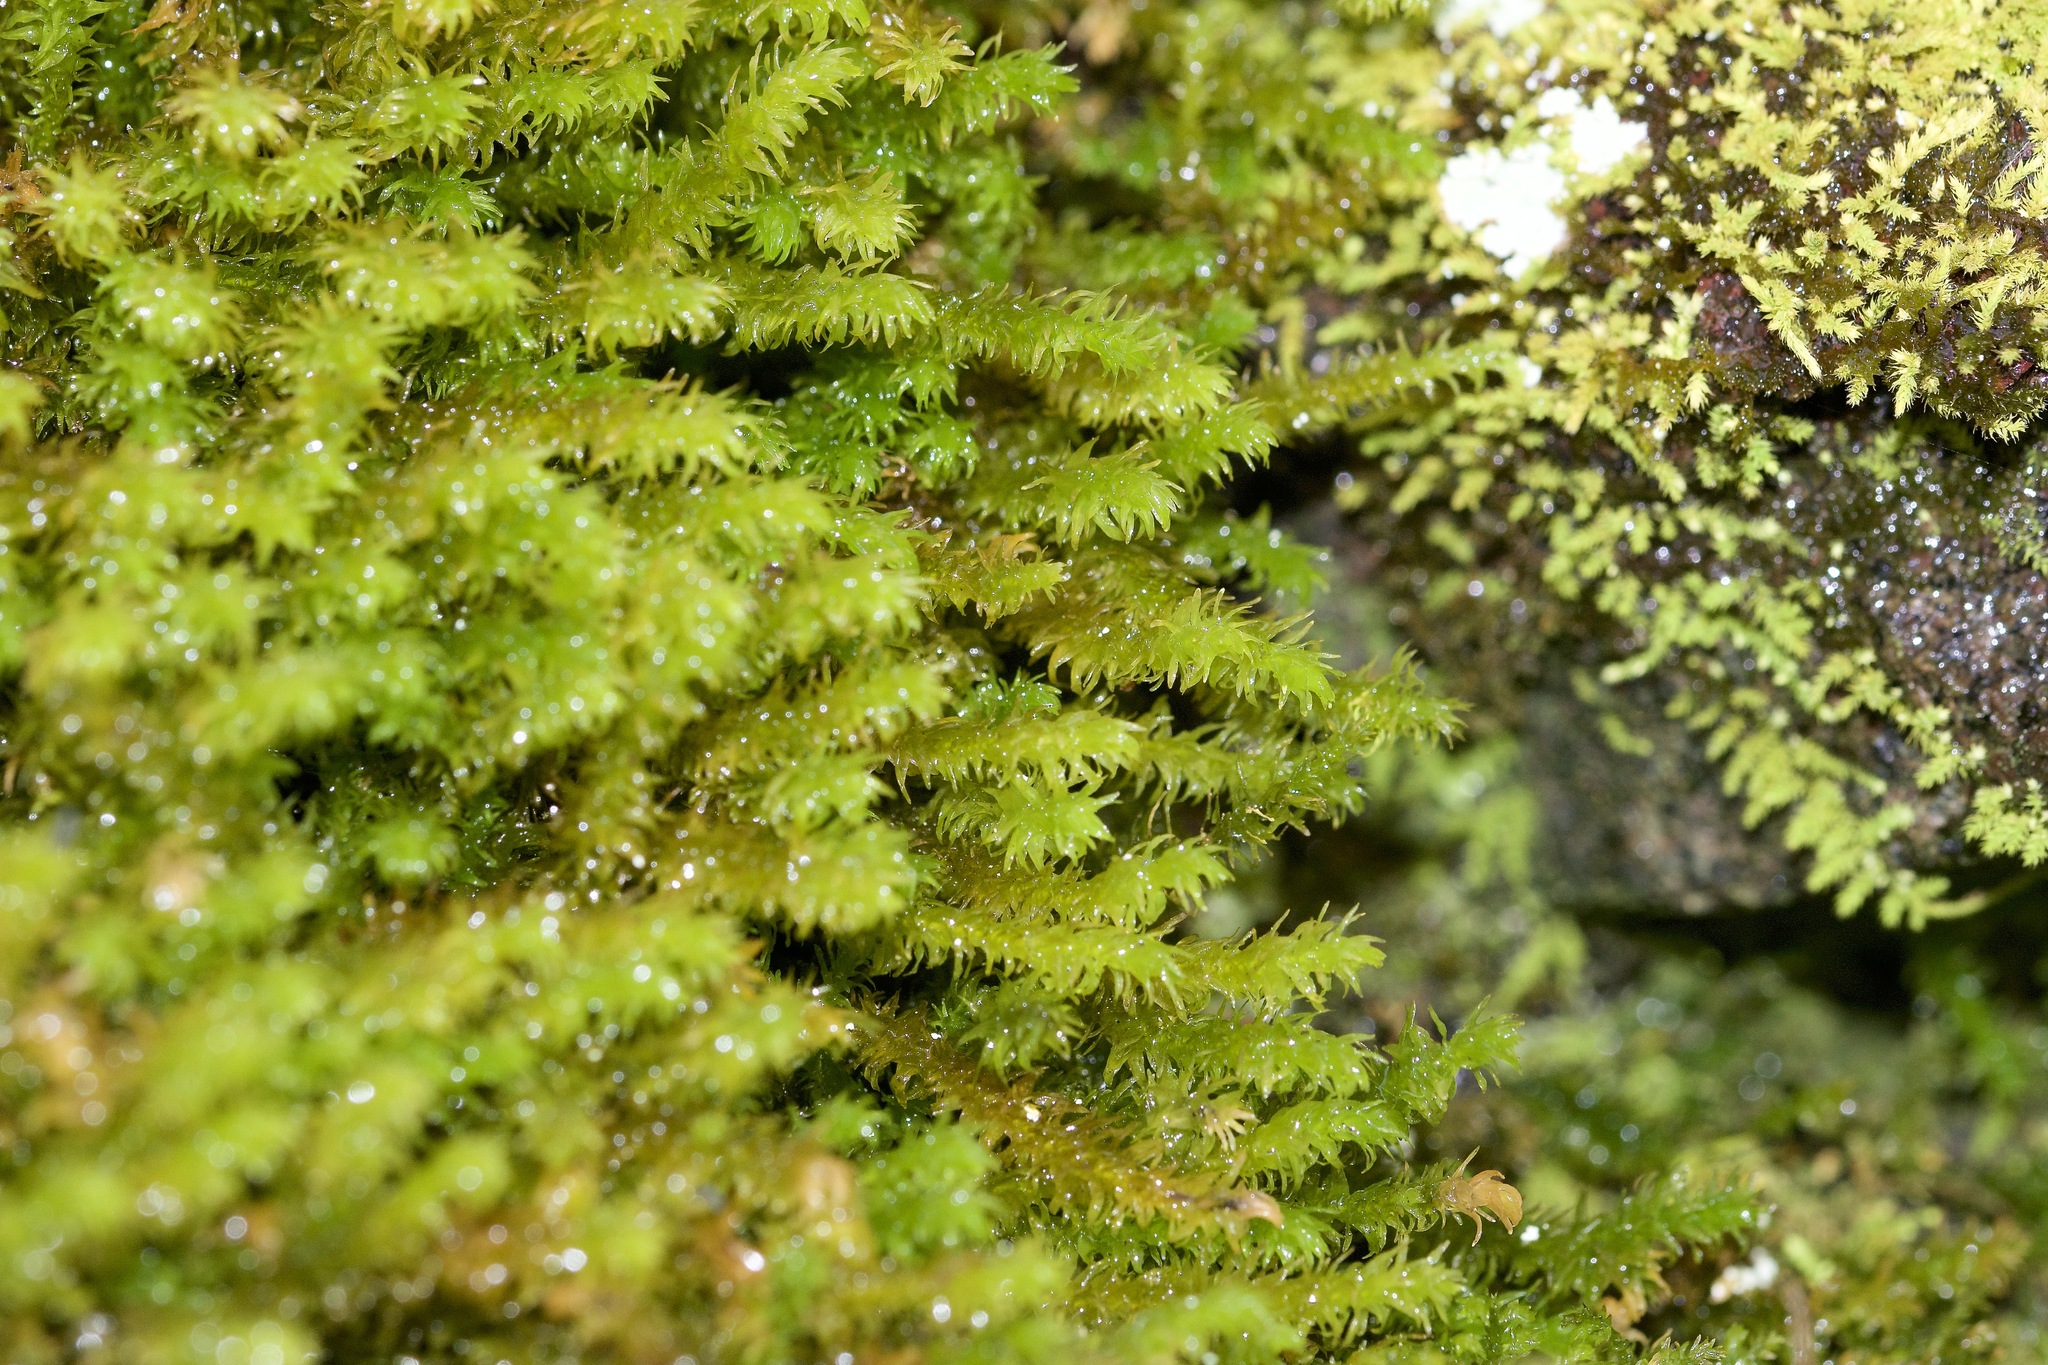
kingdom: Plantae
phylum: Bryophyta
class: Bryopsida
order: Hypnales
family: Anomodontaceae
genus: Anomodon
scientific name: Anomodon viticulosus
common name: Tall anomodon
